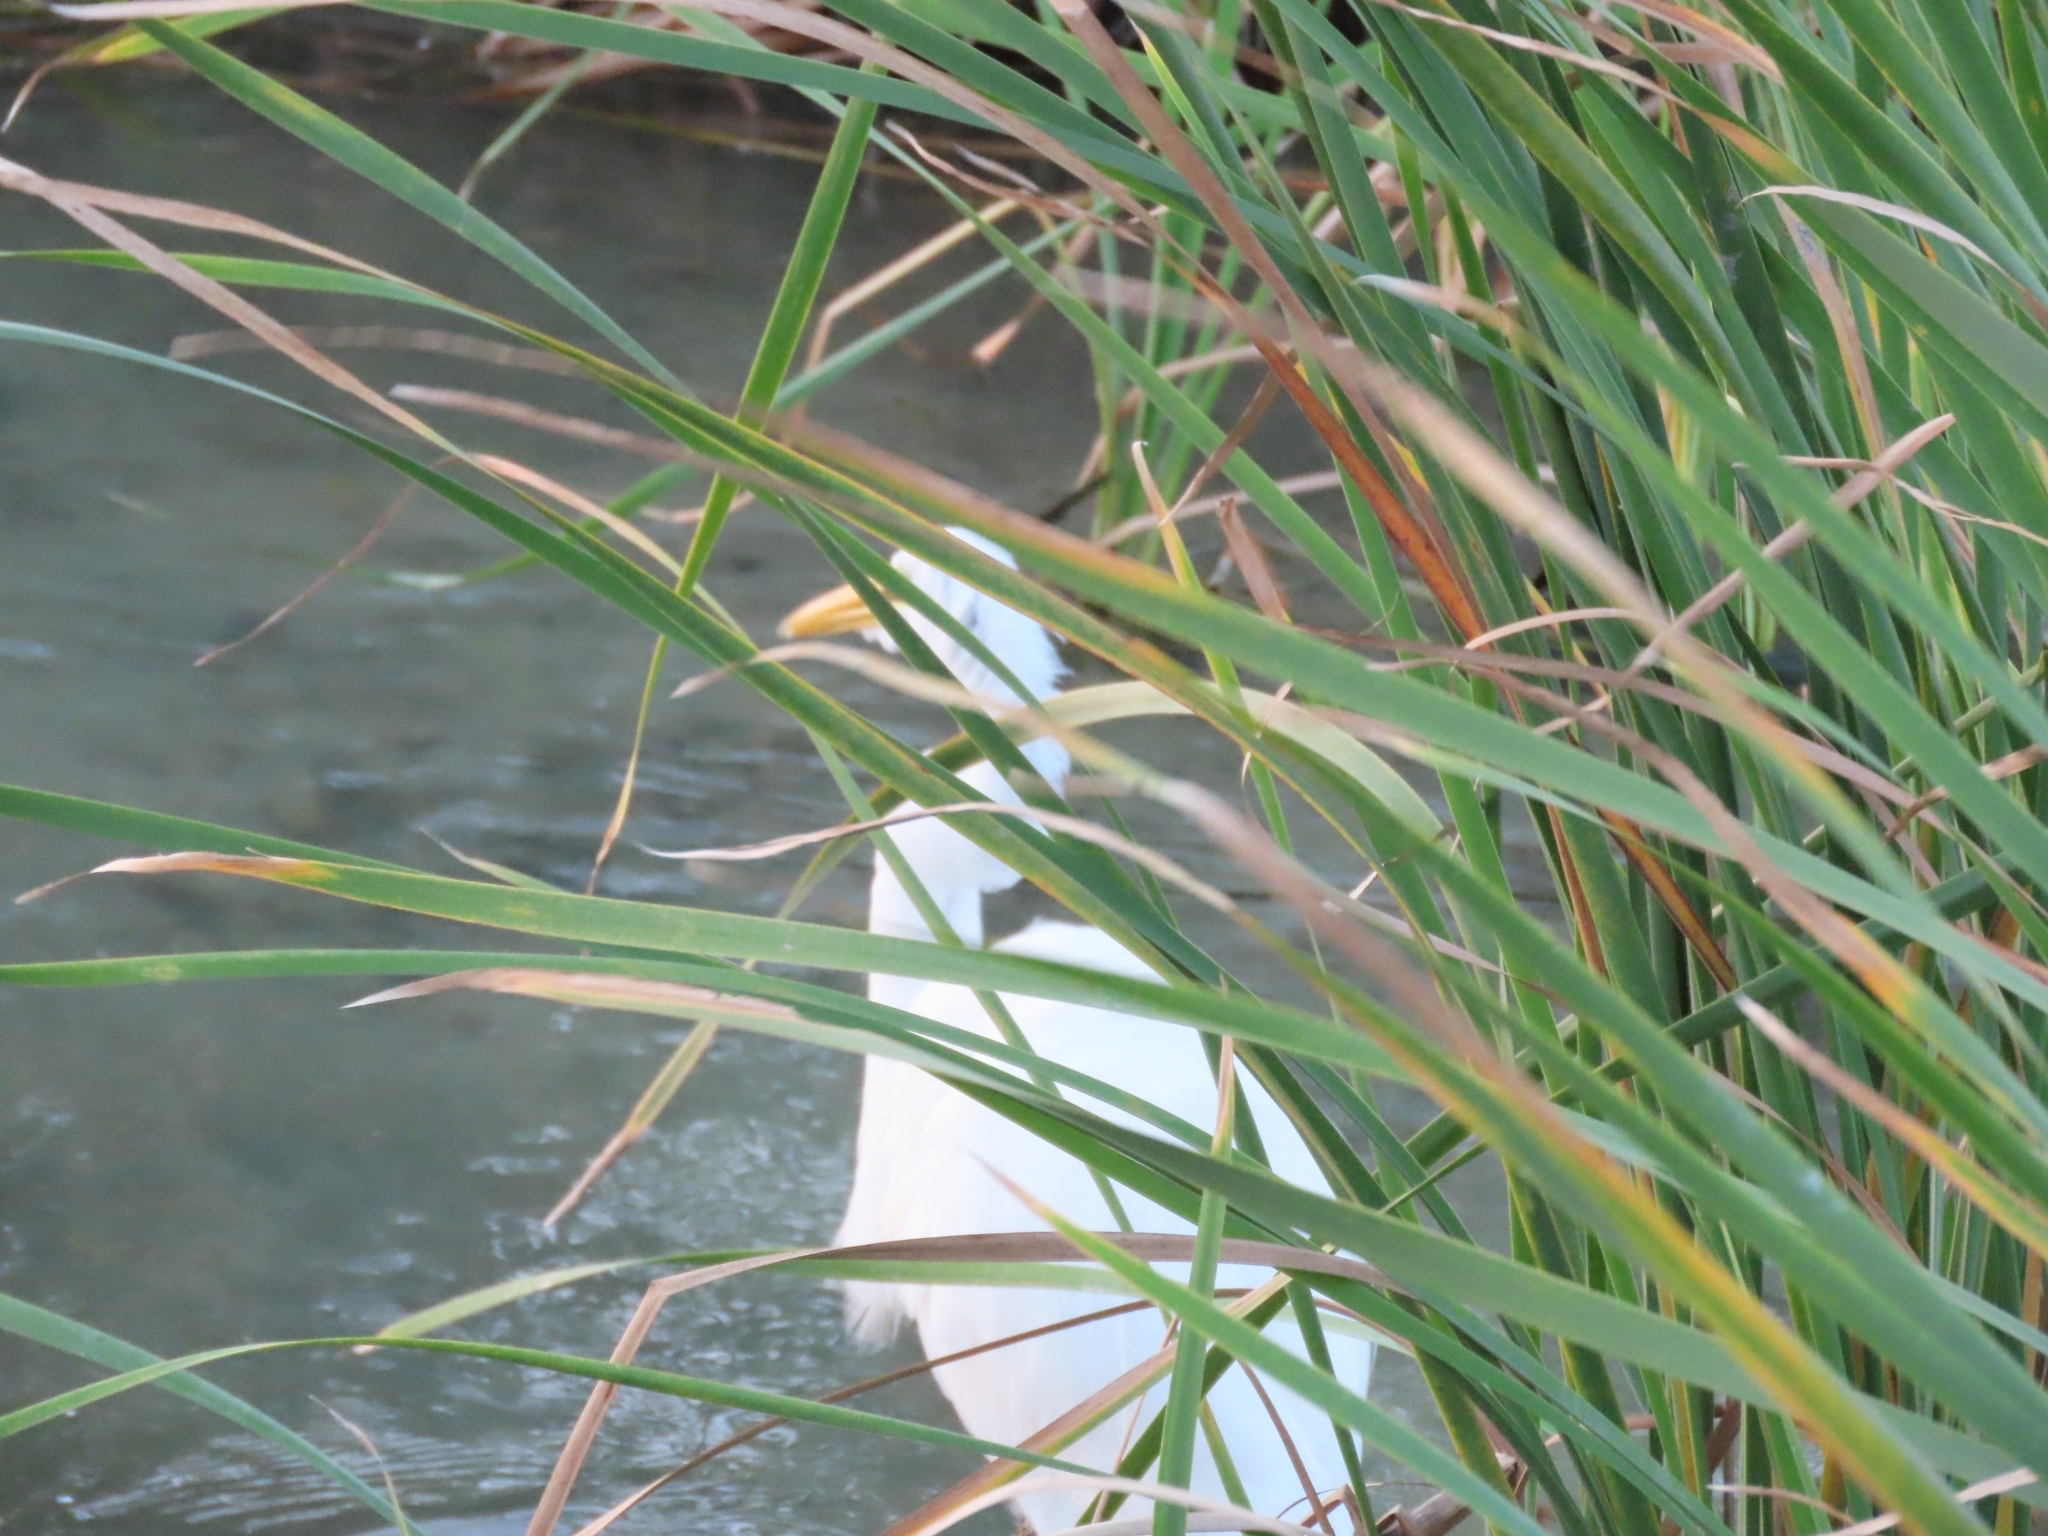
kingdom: Animalia
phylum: Chordata
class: Aves
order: Pelecaniformes
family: Ardeidae
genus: Ardea
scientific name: Ardea alba
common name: Great egret
